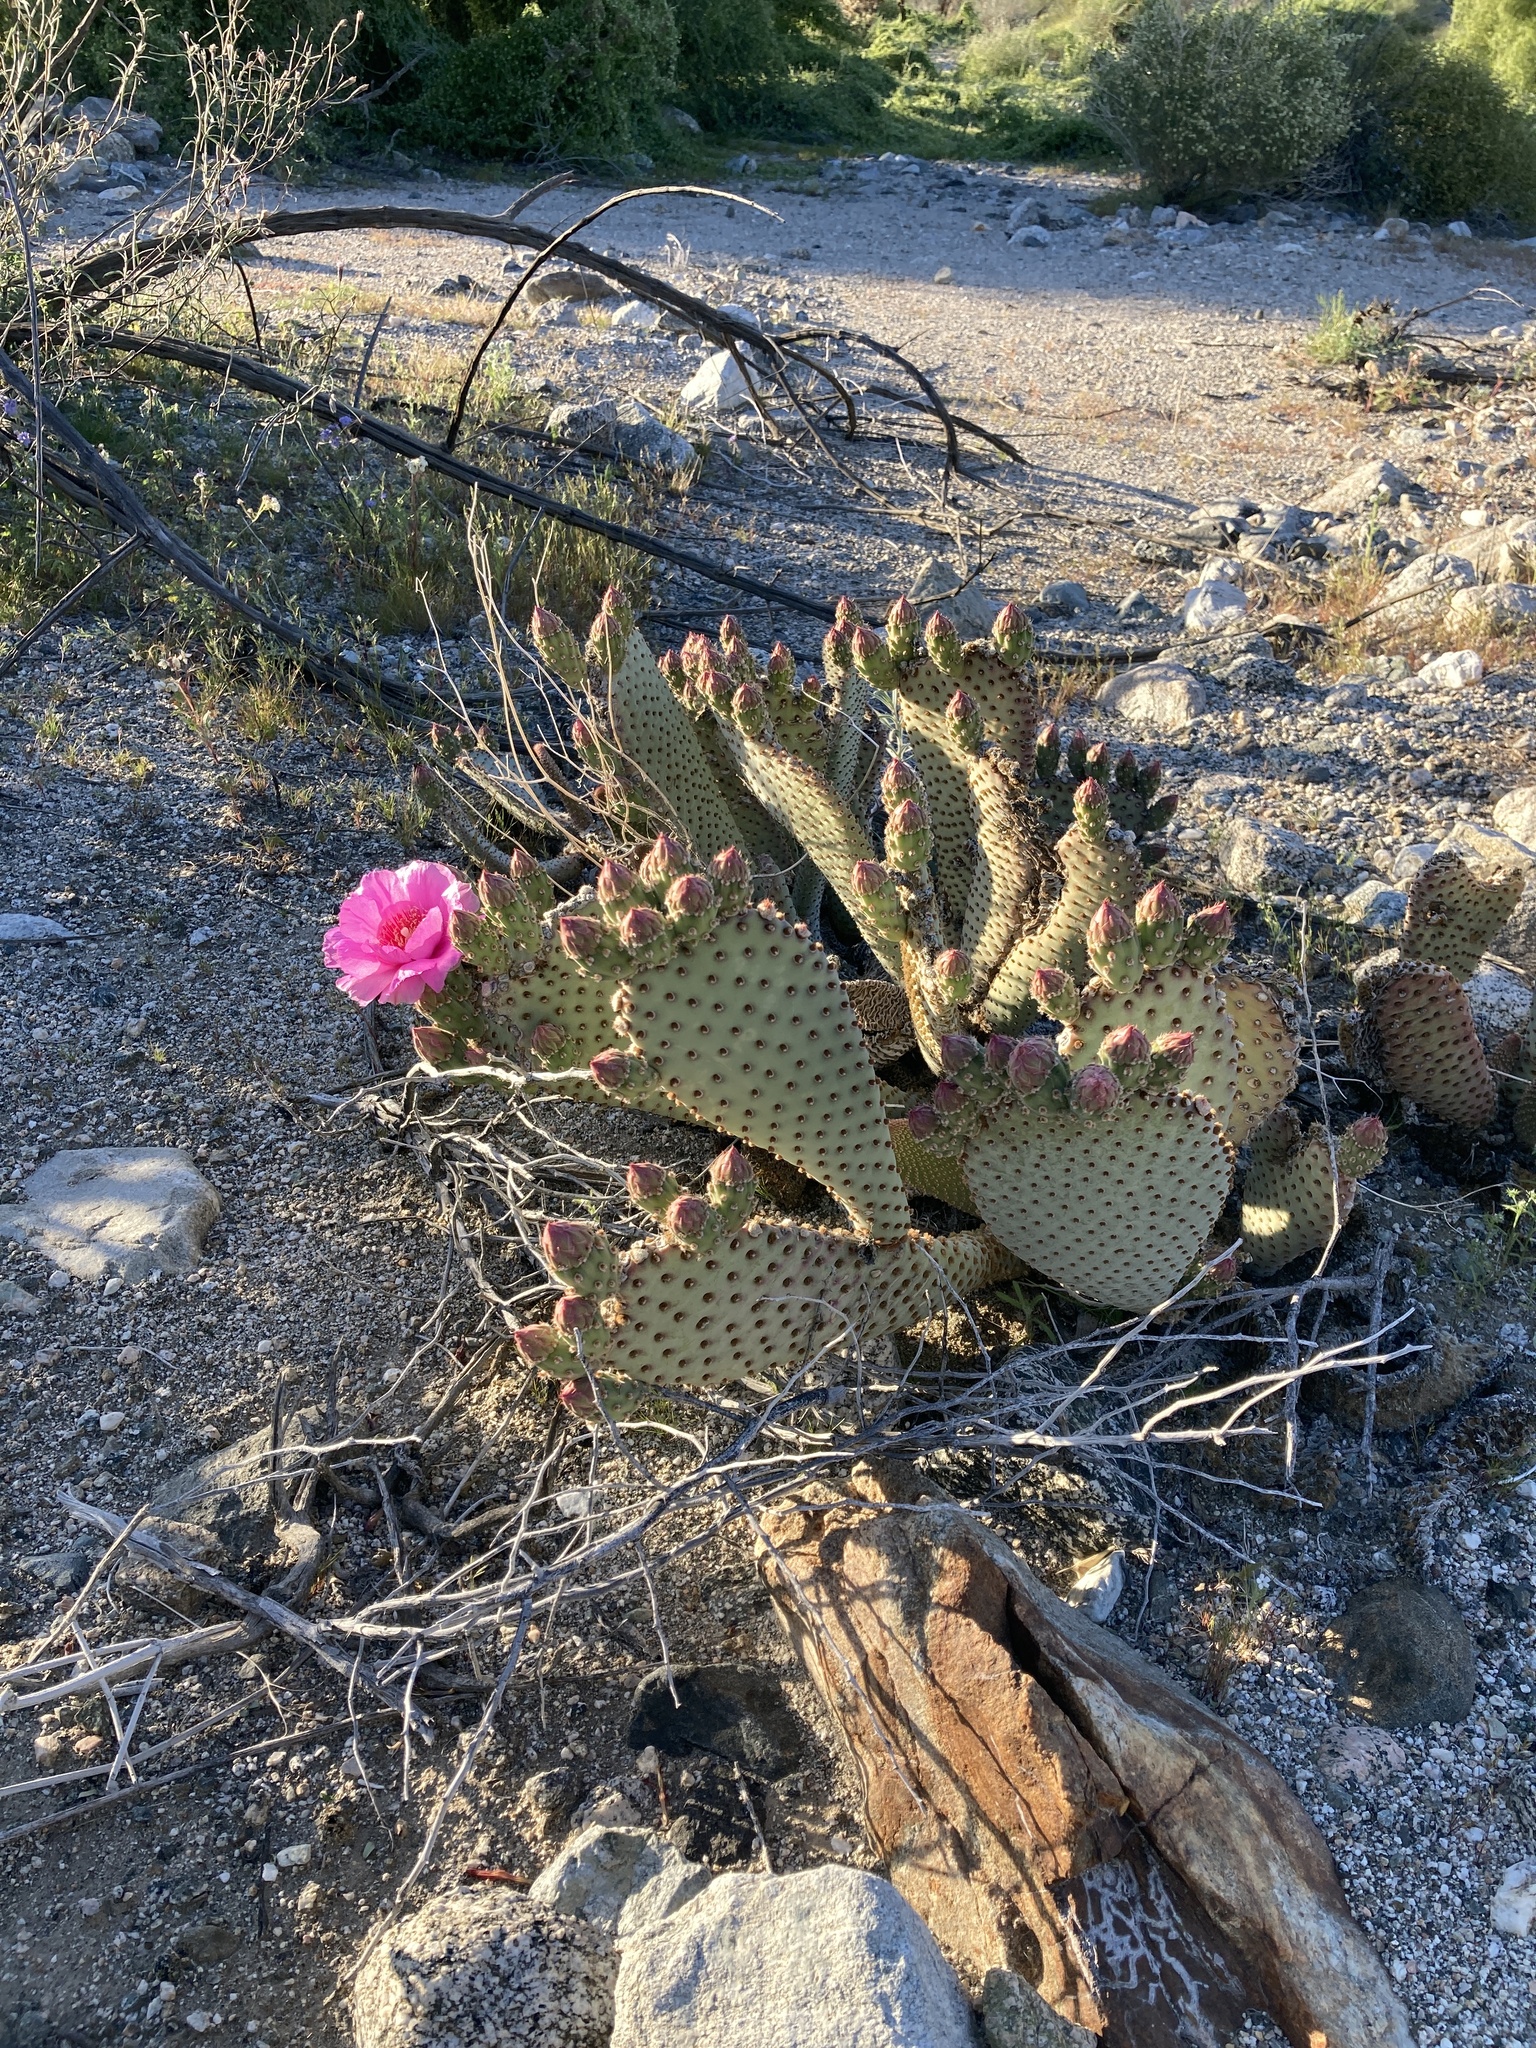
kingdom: Plantae
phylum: Tracheophyta
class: Magnoliopsida
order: Caryophyllales
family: Cactaceae
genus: Opuntia
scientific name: Opuntia basilaris
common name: Beavertail prickly-pear
